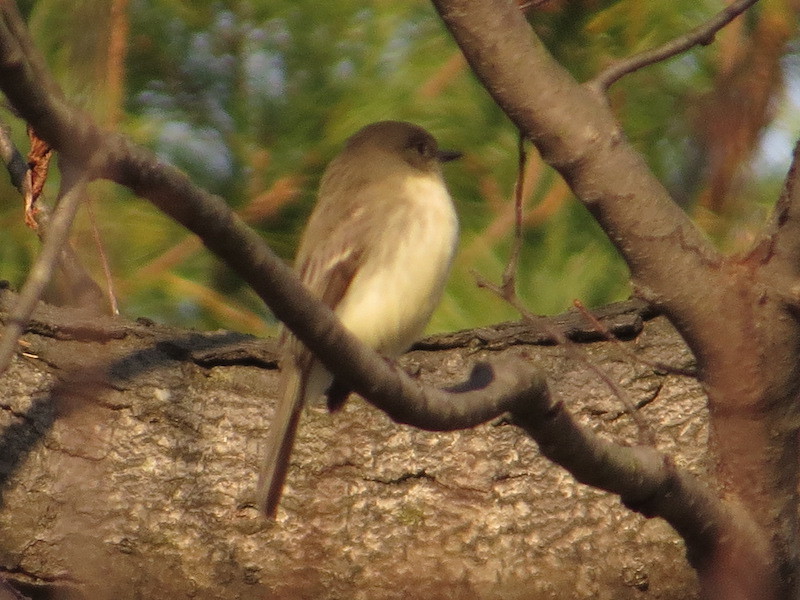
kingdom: Animalia
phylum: Chordata
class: Aves
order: Passeriformes
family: Tyrannidae
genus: Sayornis
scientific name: Sayornis phoebe
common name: Eastern phoebe
